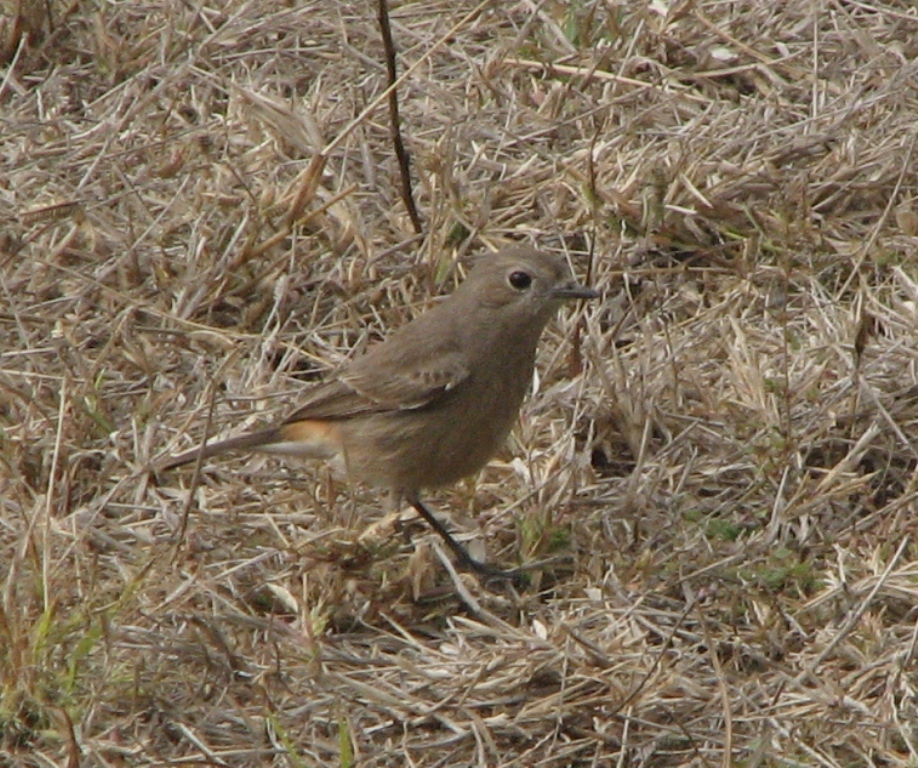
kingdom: Animalia
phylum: Chordata
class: Aves
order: Passeriformes
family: Muscicapidae
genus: Phoenicurus
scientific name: Phoenicurus ochruros
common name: Black redstart
